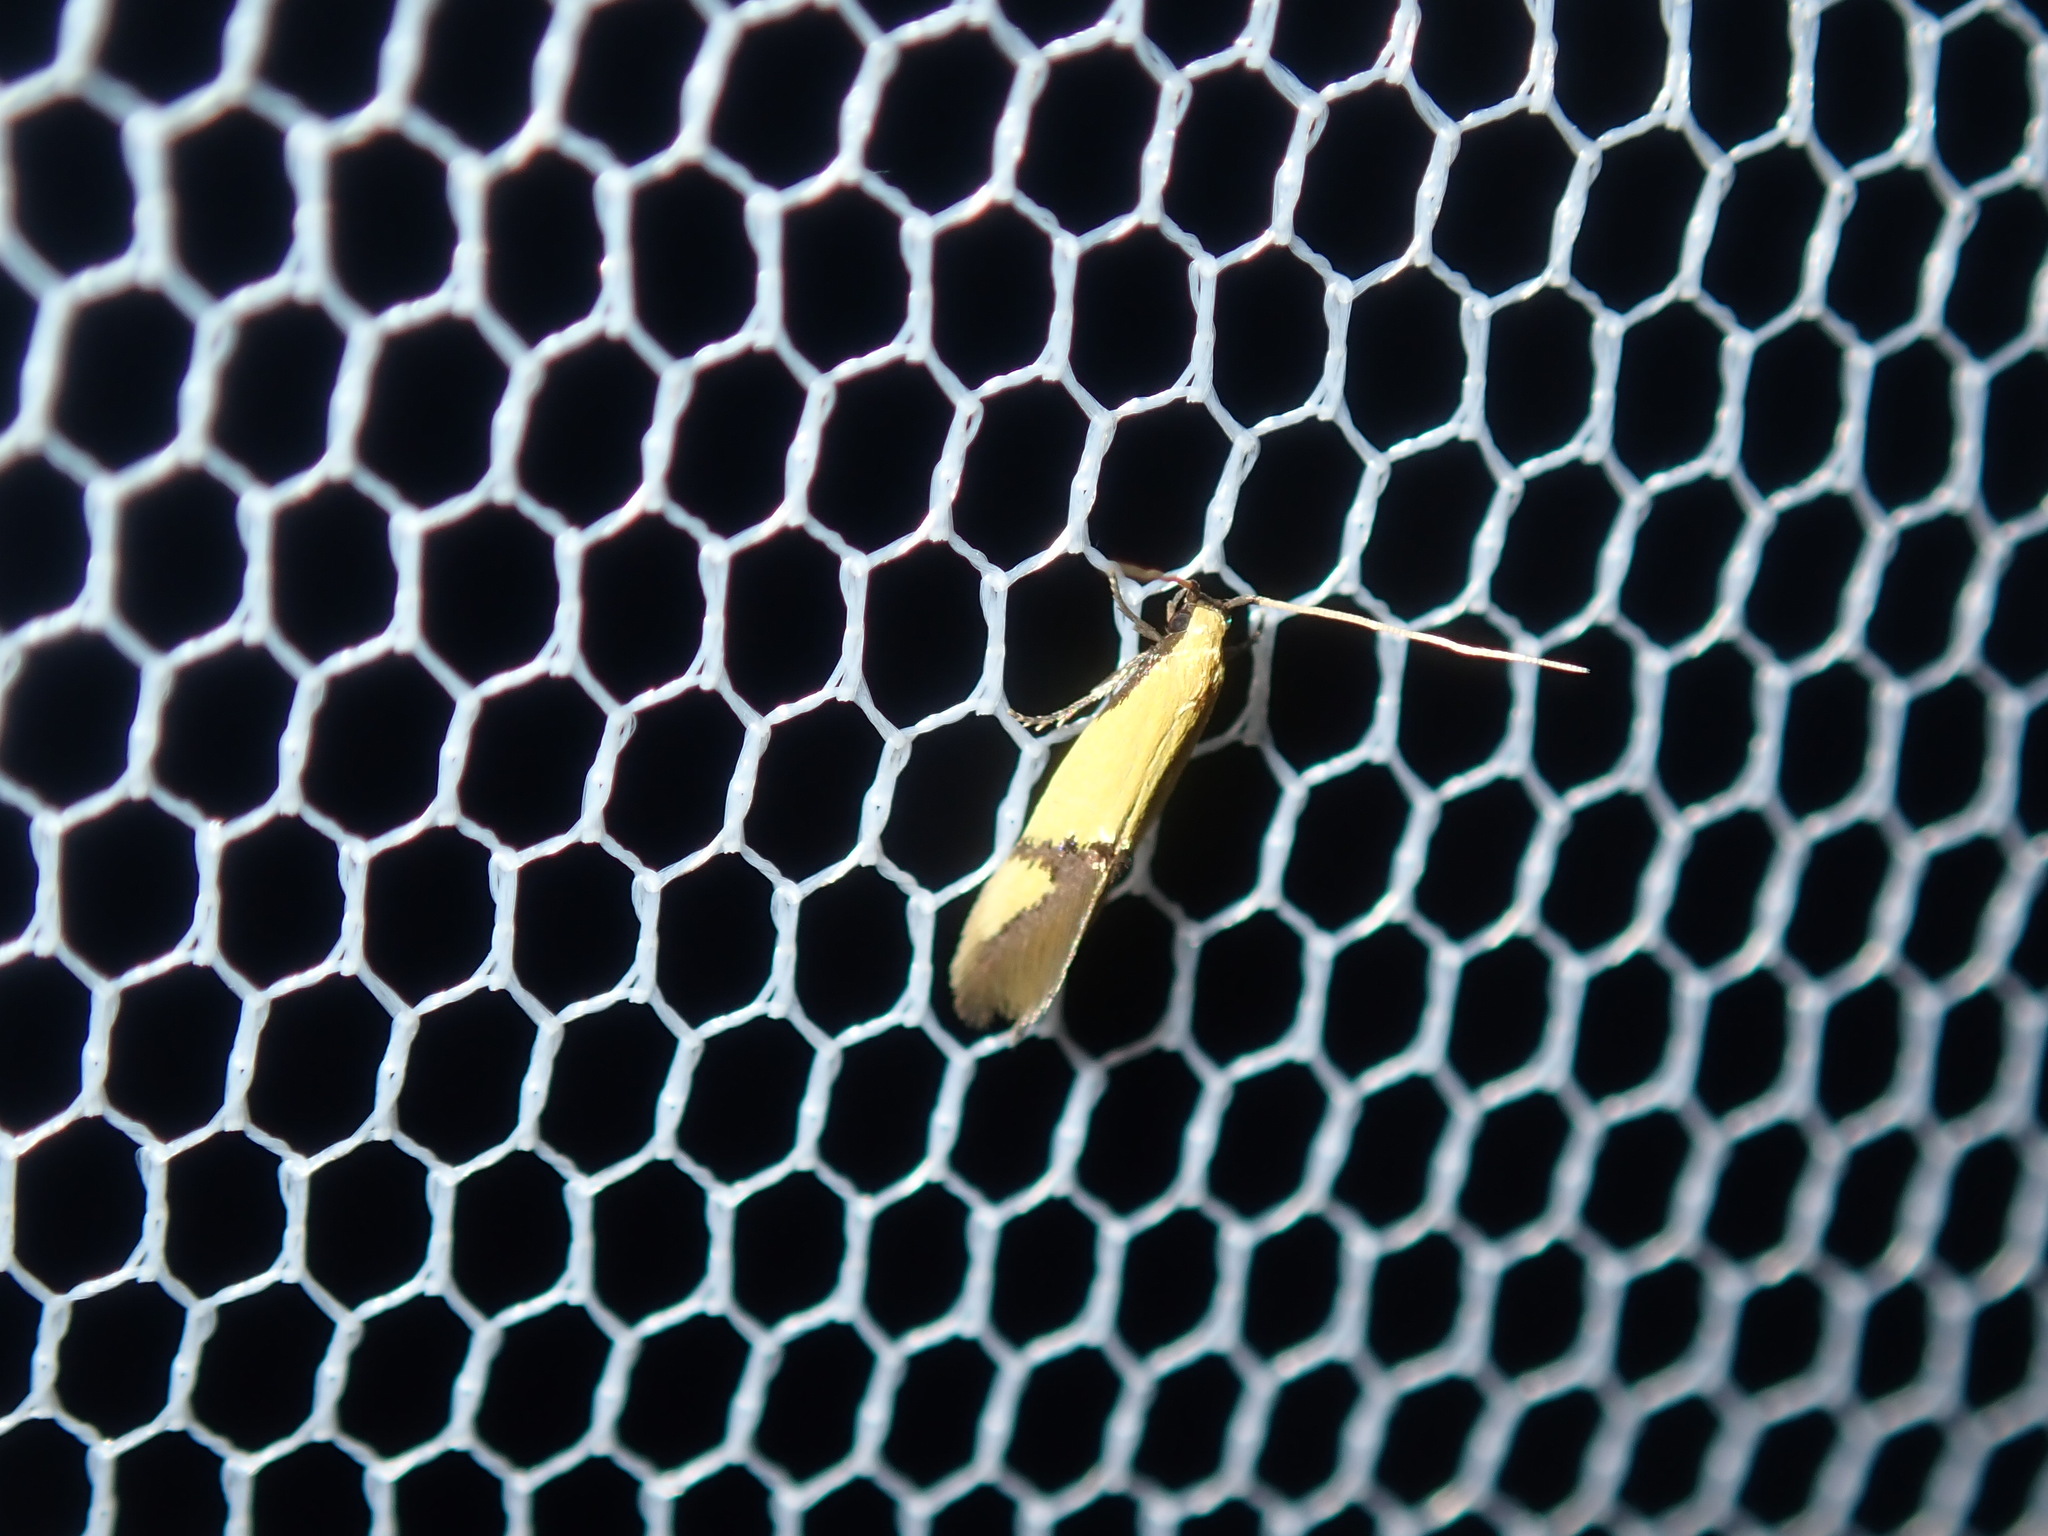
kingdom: Animalia
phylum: Arthropoda
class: Insecta
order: Lepidoptera
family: Tineidae
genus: Opogona
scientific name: Opogona stereodyta
